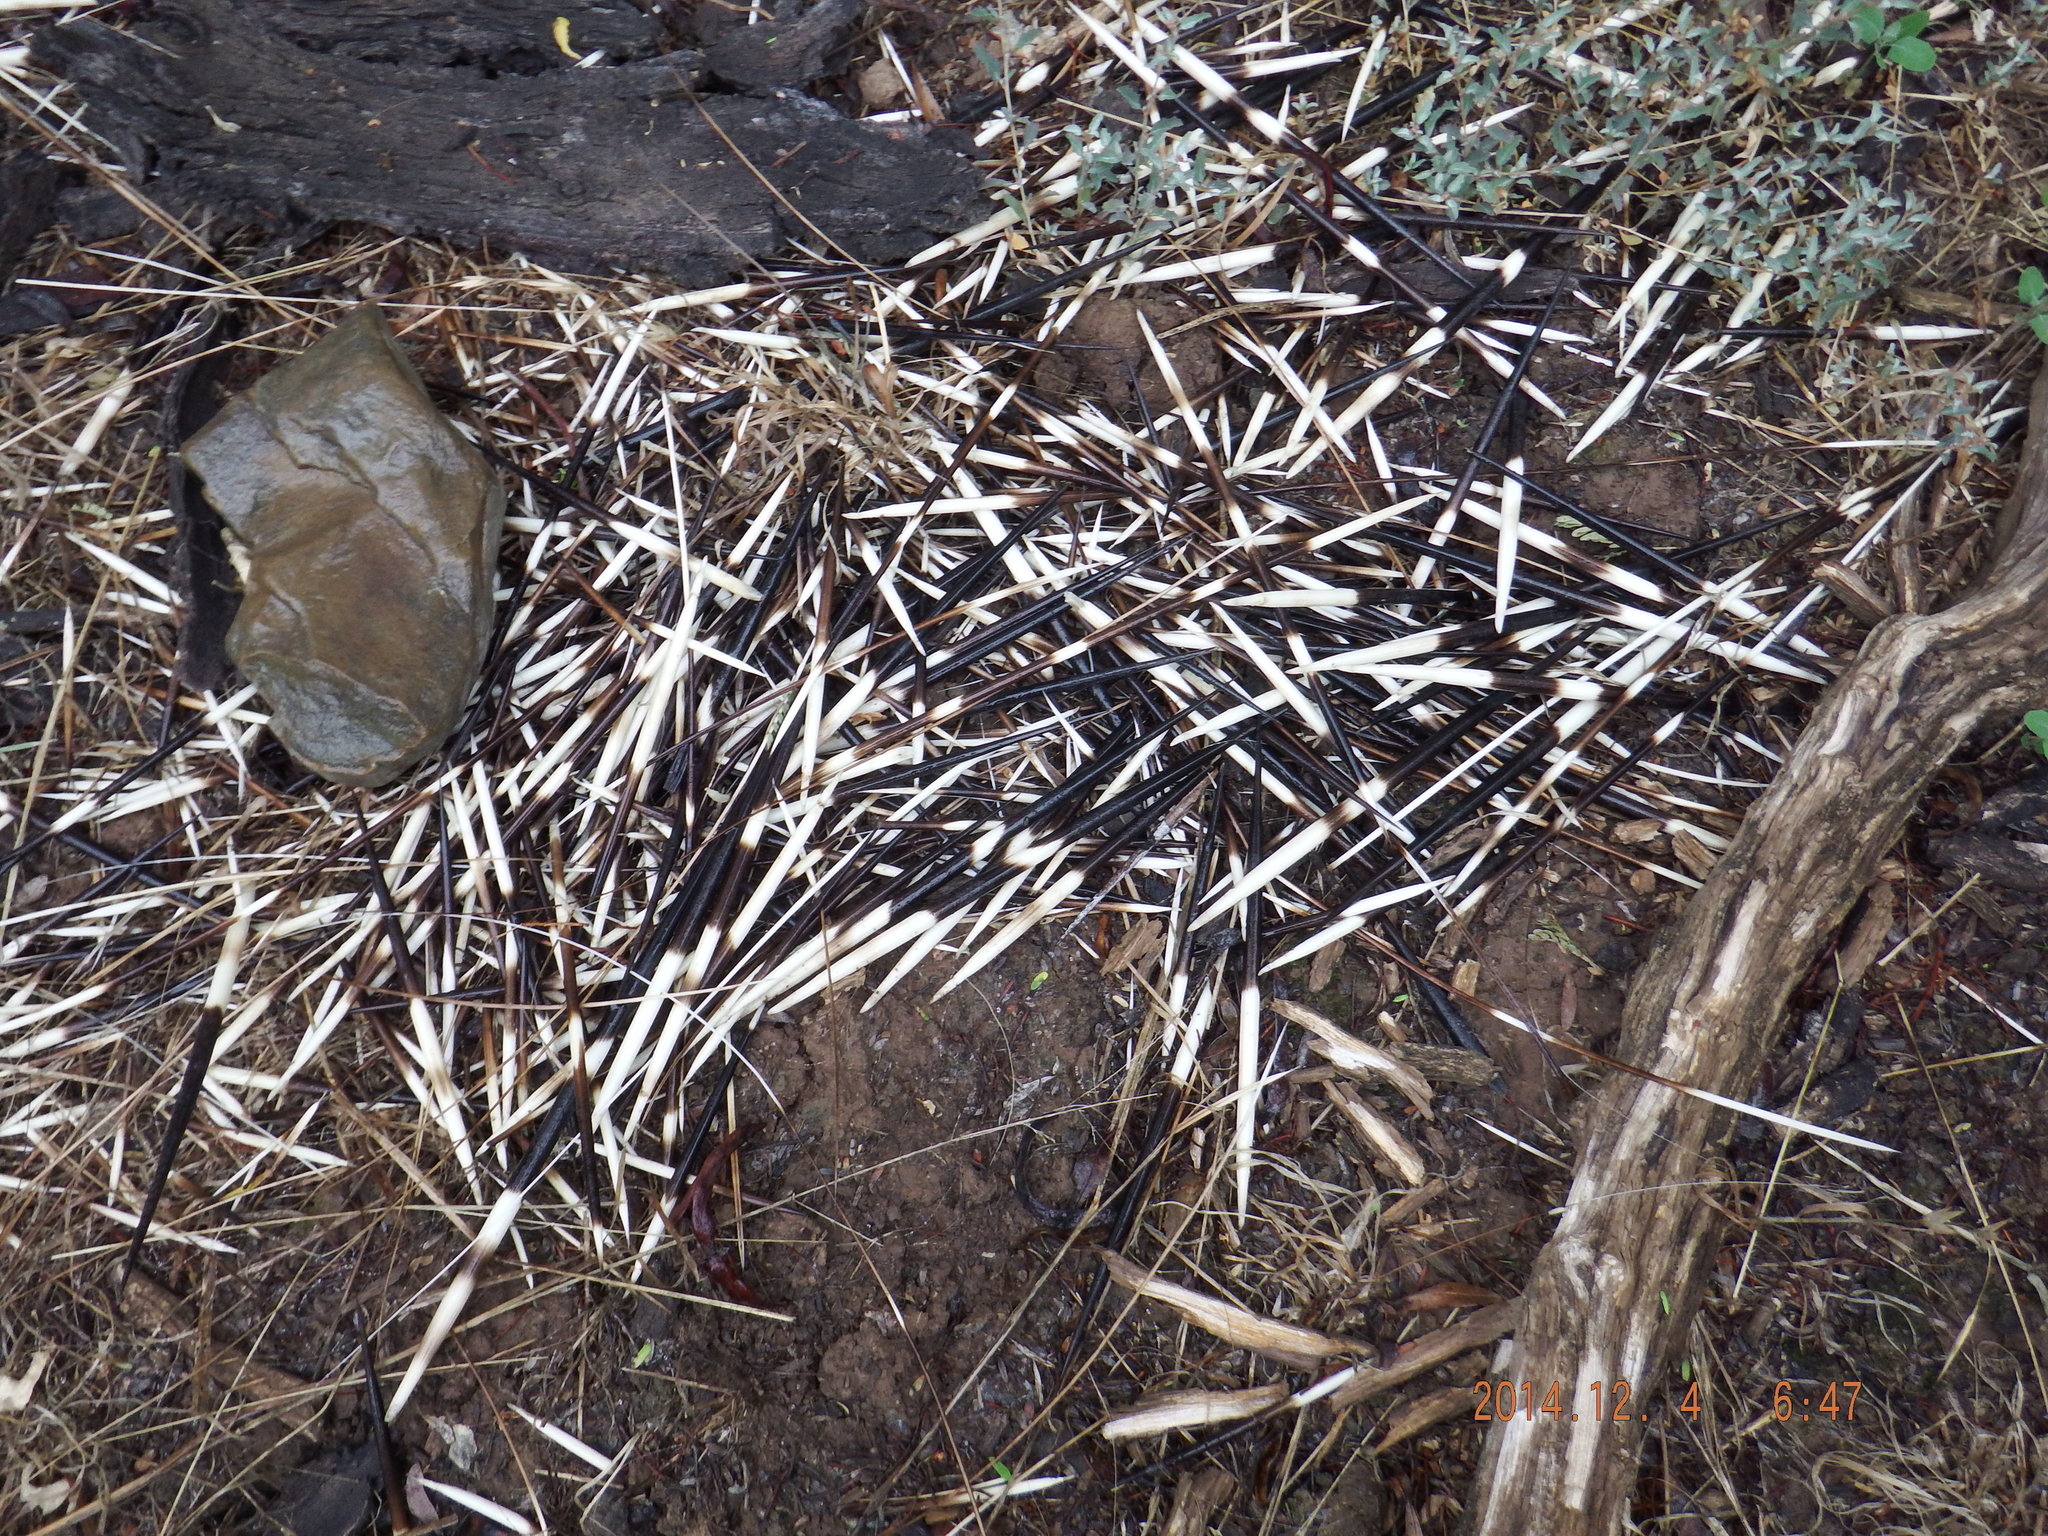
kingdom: Animalia
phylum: Chordata
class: Mammalia
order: Rodentia
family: Hystricidae
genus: Hystrix
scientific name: Hystrix africaeaustralis
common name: Cape porcupine
